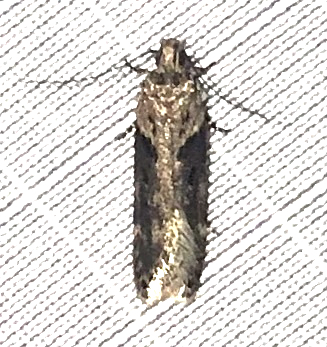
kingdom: Animalia
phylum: Arthropoda
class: Insecta
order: Lepidoptera
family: Gelechiidae
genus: Chionodes
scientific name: Chionodes mediofuscella
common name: Black-smudged chionodes moth
